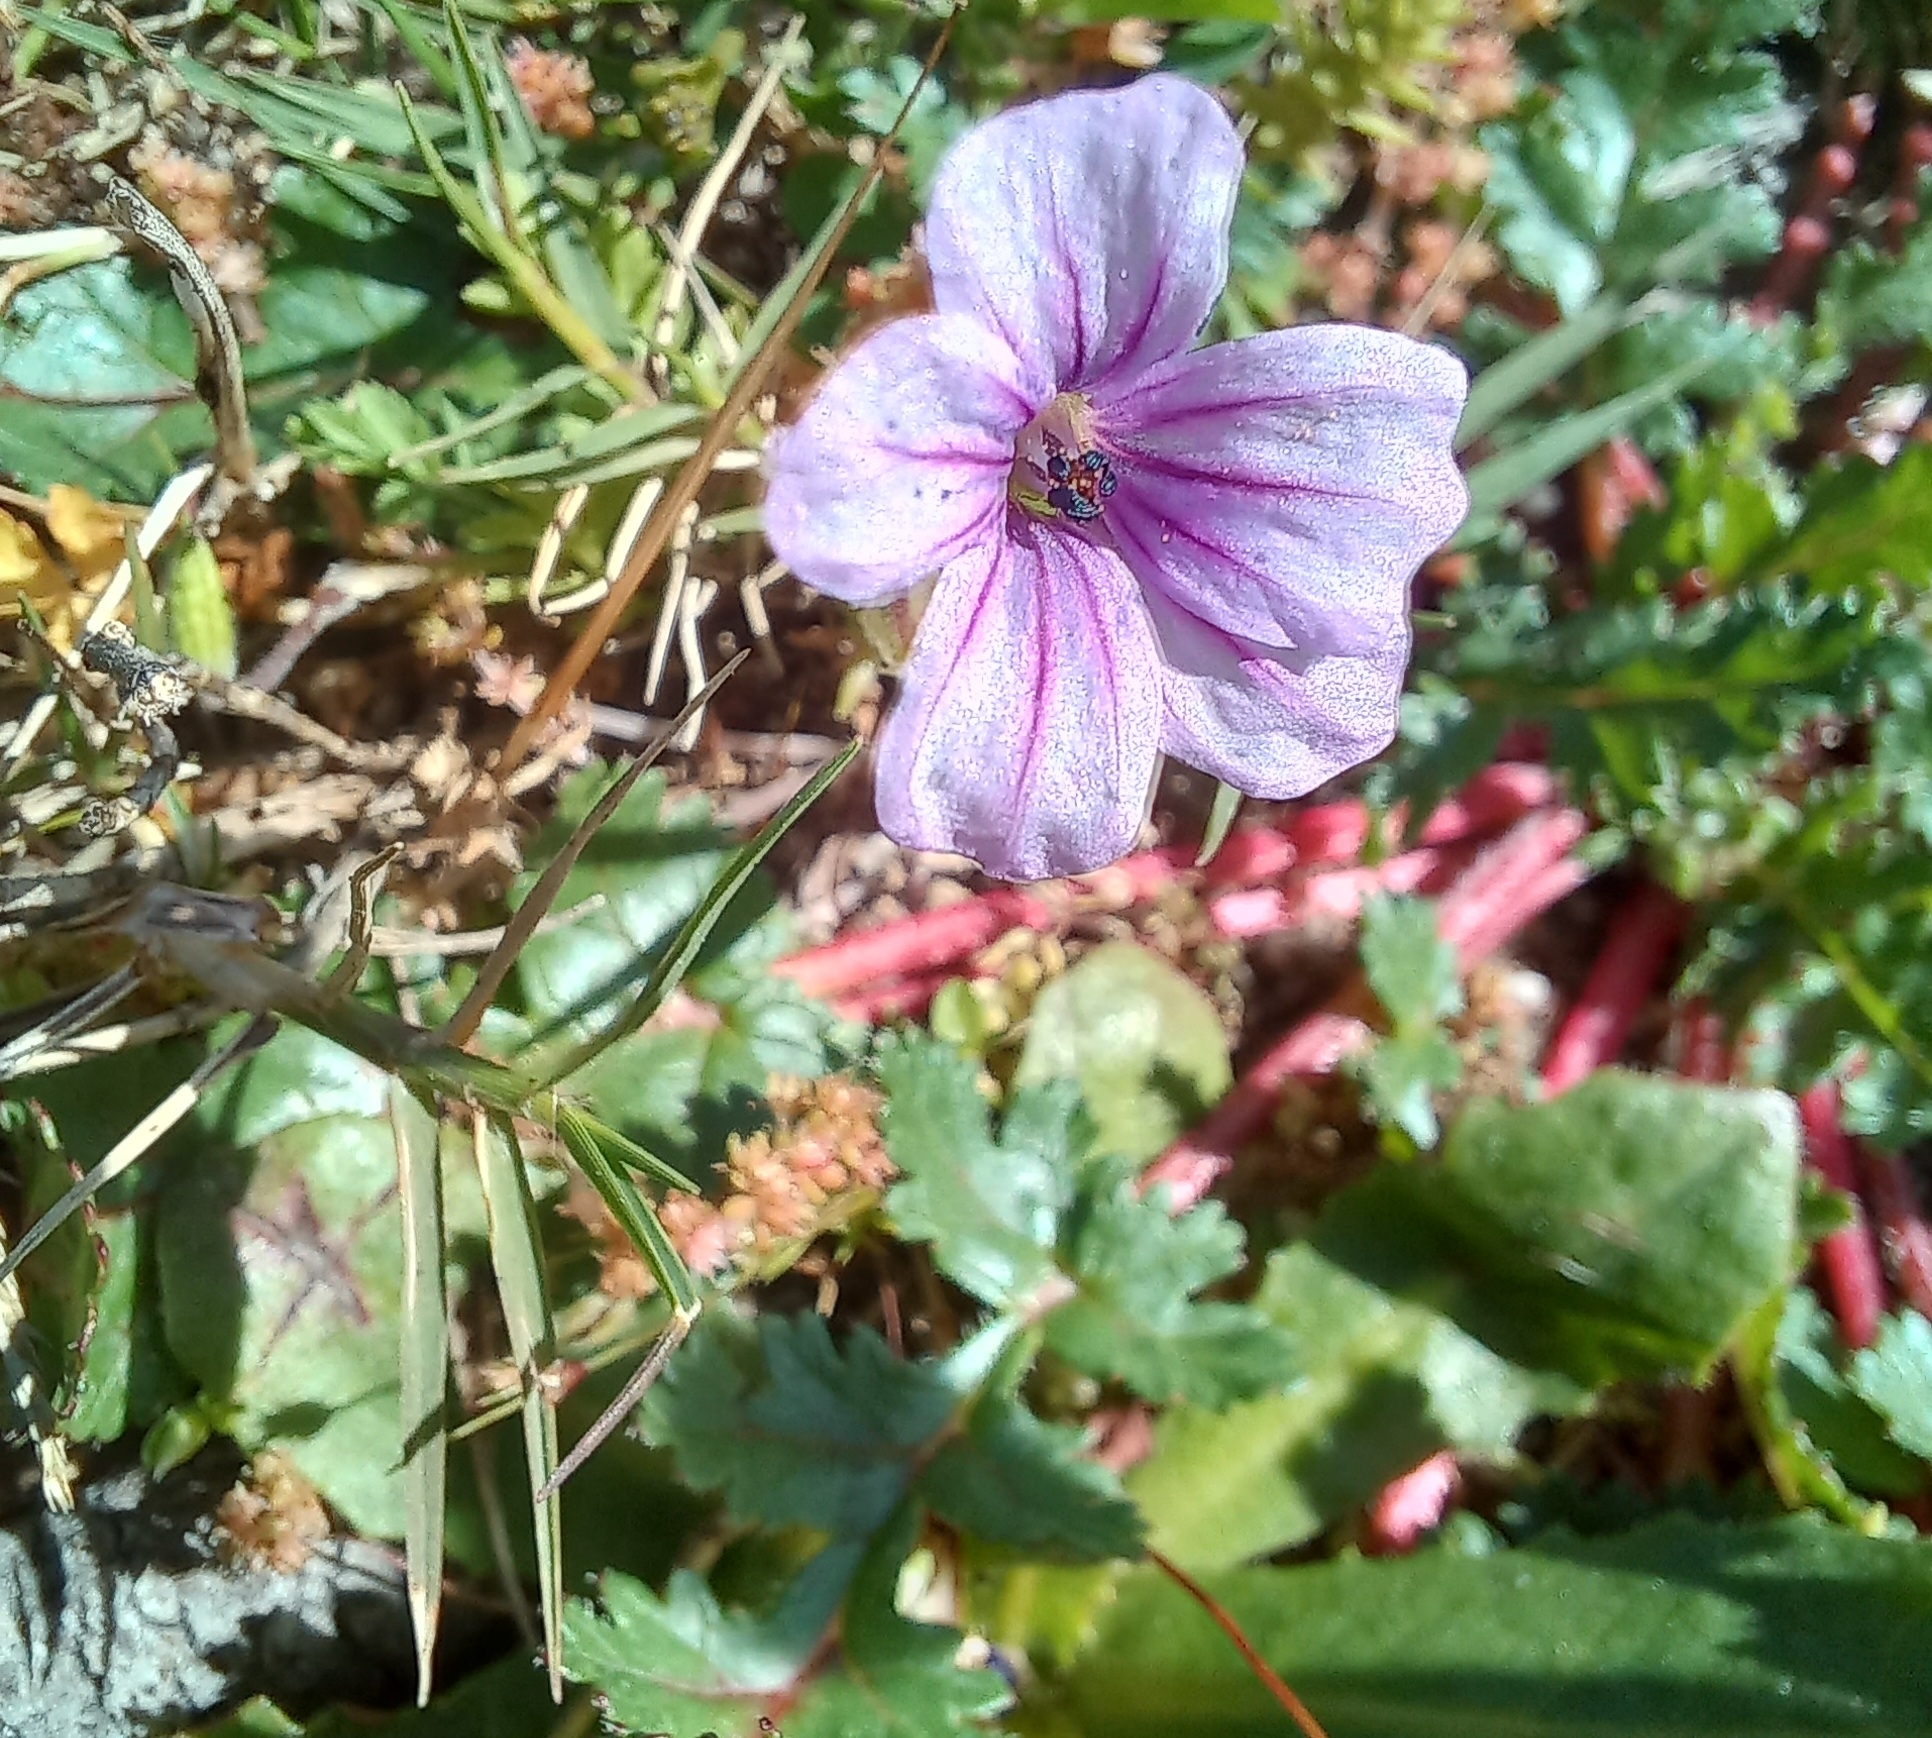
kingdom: Plantae
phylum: Tracheophyta
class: Magnoliopsida
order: Geraniales
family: Geraniaceae
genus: Erodium
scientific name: Erodium botrys
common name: Mediterranean stork's-bill
